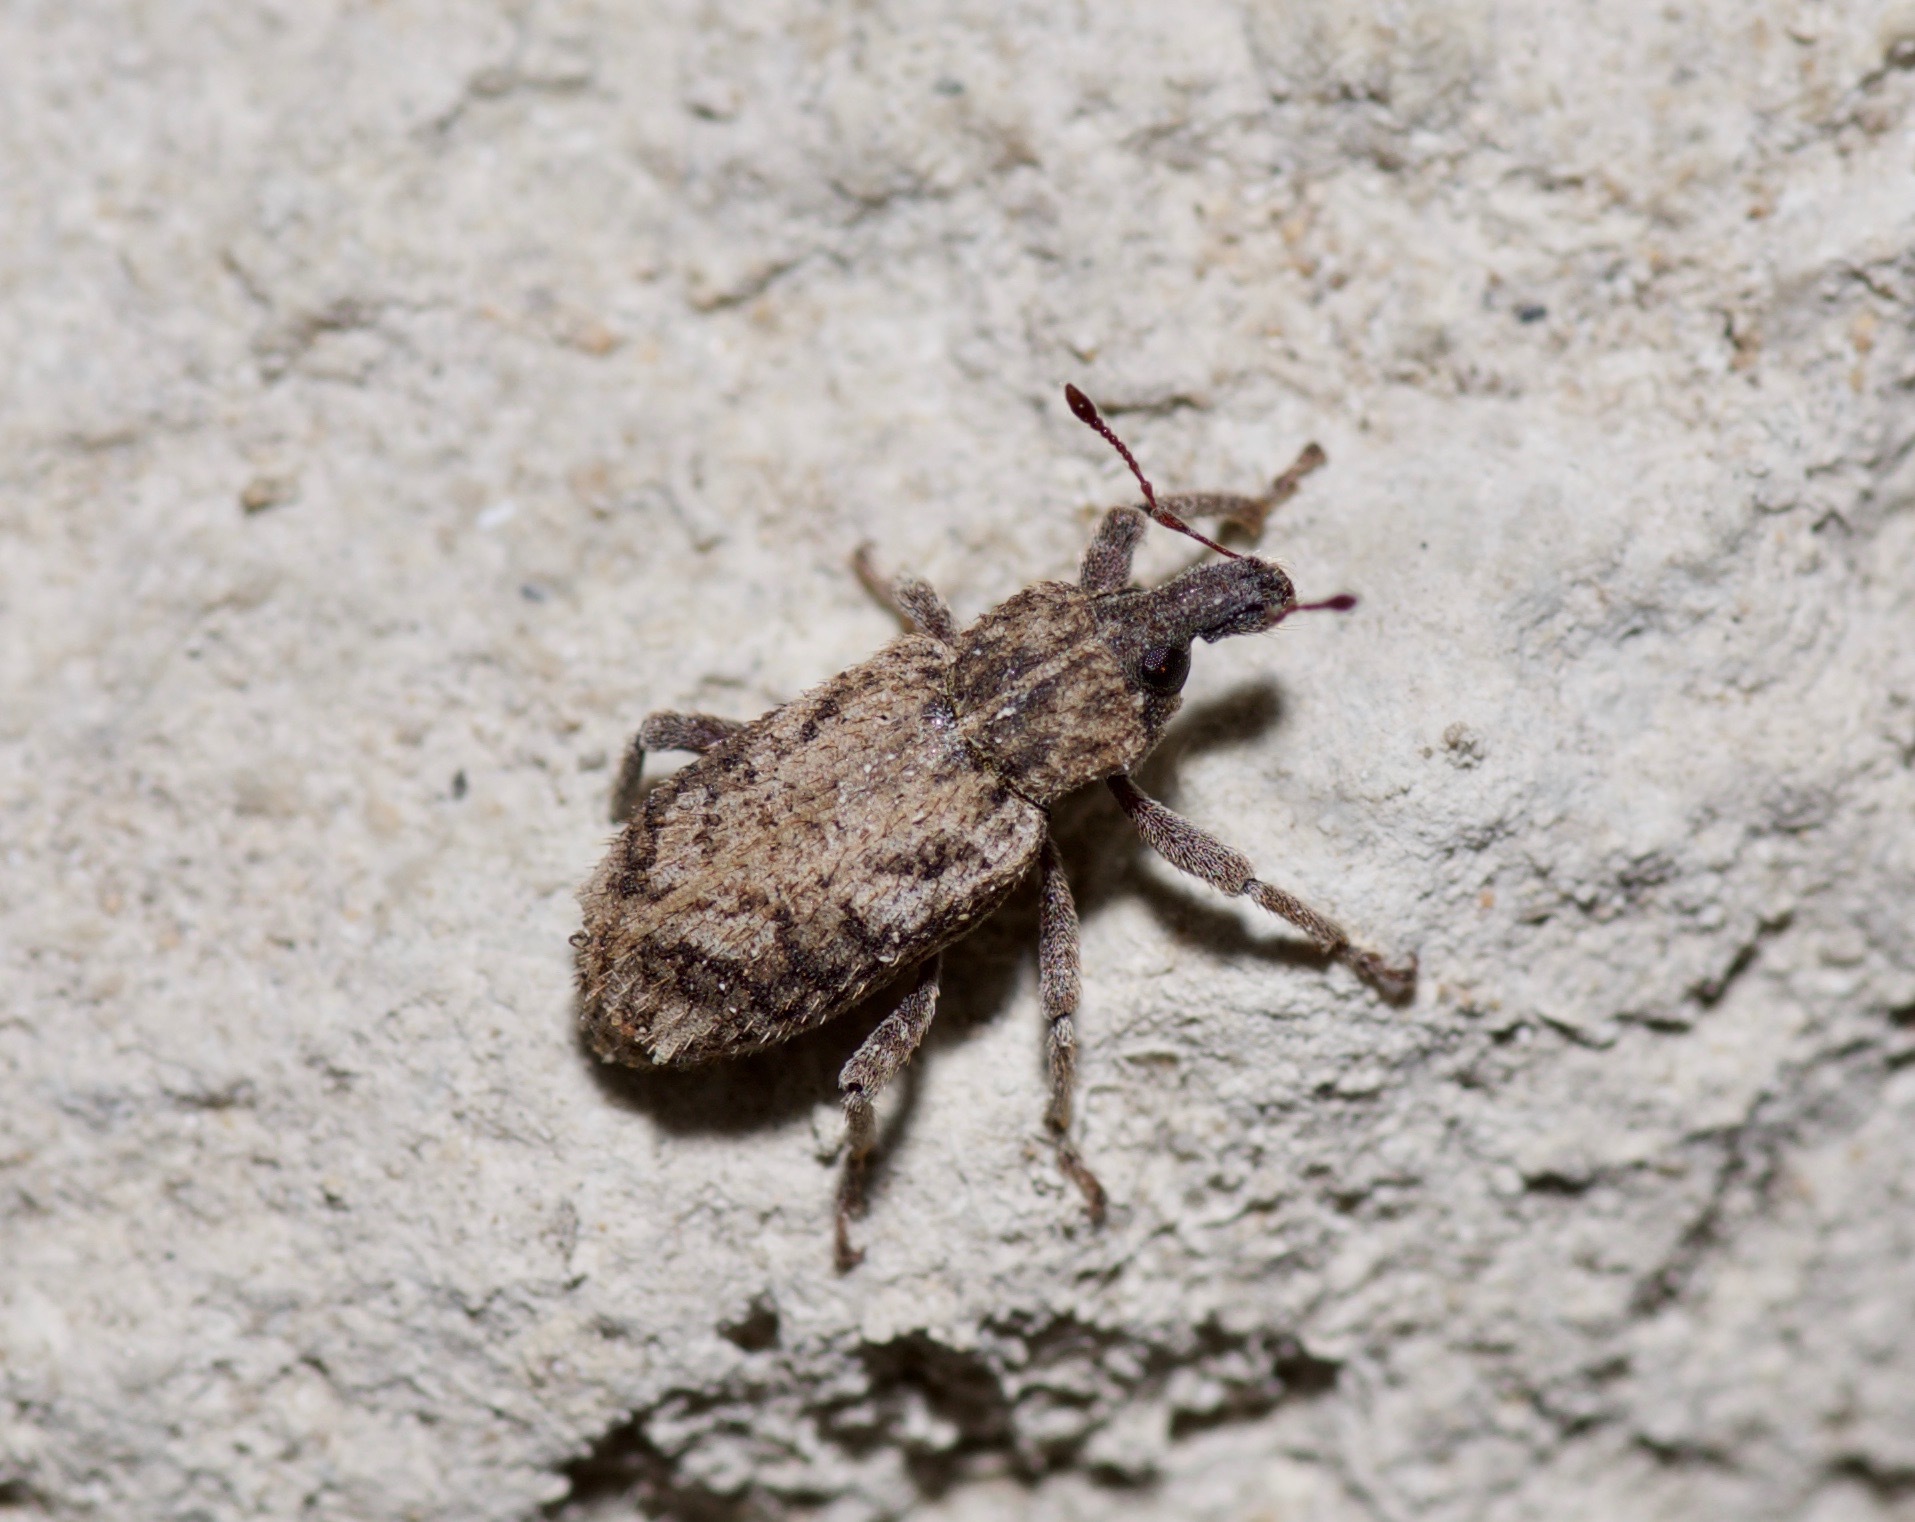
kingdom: Animalia
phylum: Arthropoda
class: Insecta
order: Coleoptera
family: Curculionidae
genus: Listroderes
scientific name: Listroderes difficilis
